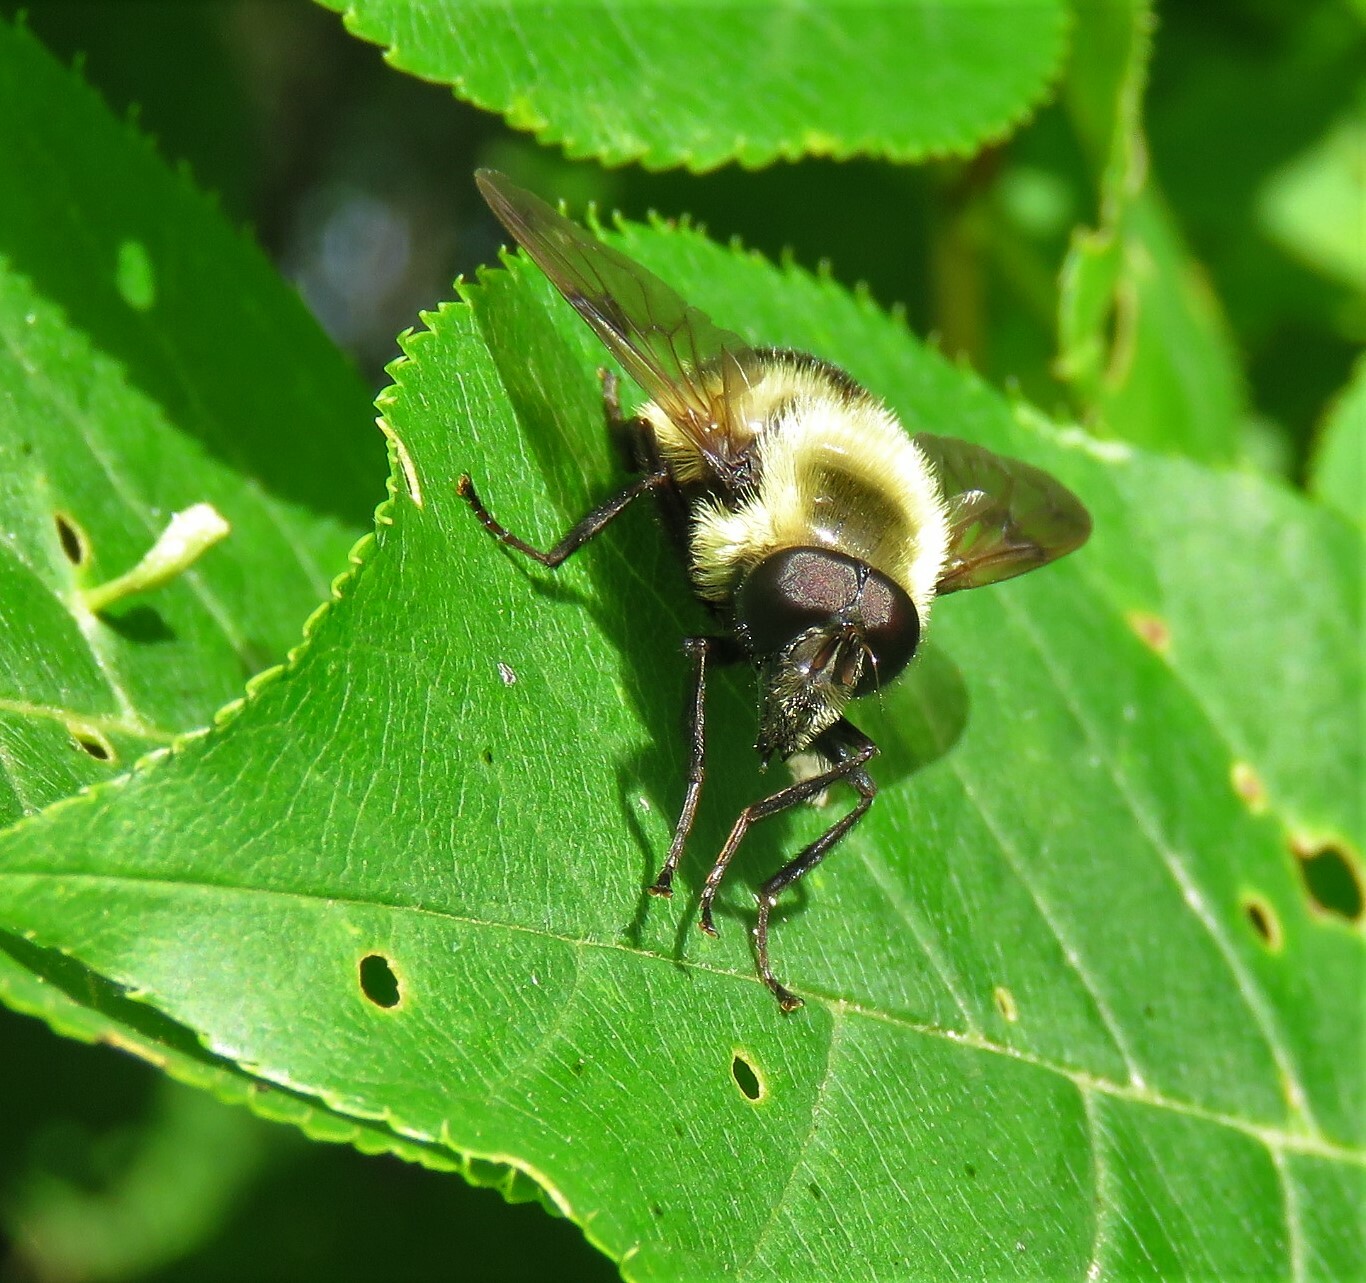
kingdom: Animalia
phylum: Arthropoda
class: Insecta
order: Diptera
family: Syrphidae
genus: Volucella
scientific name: Volucella evecta
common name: Eastern swiftwing
